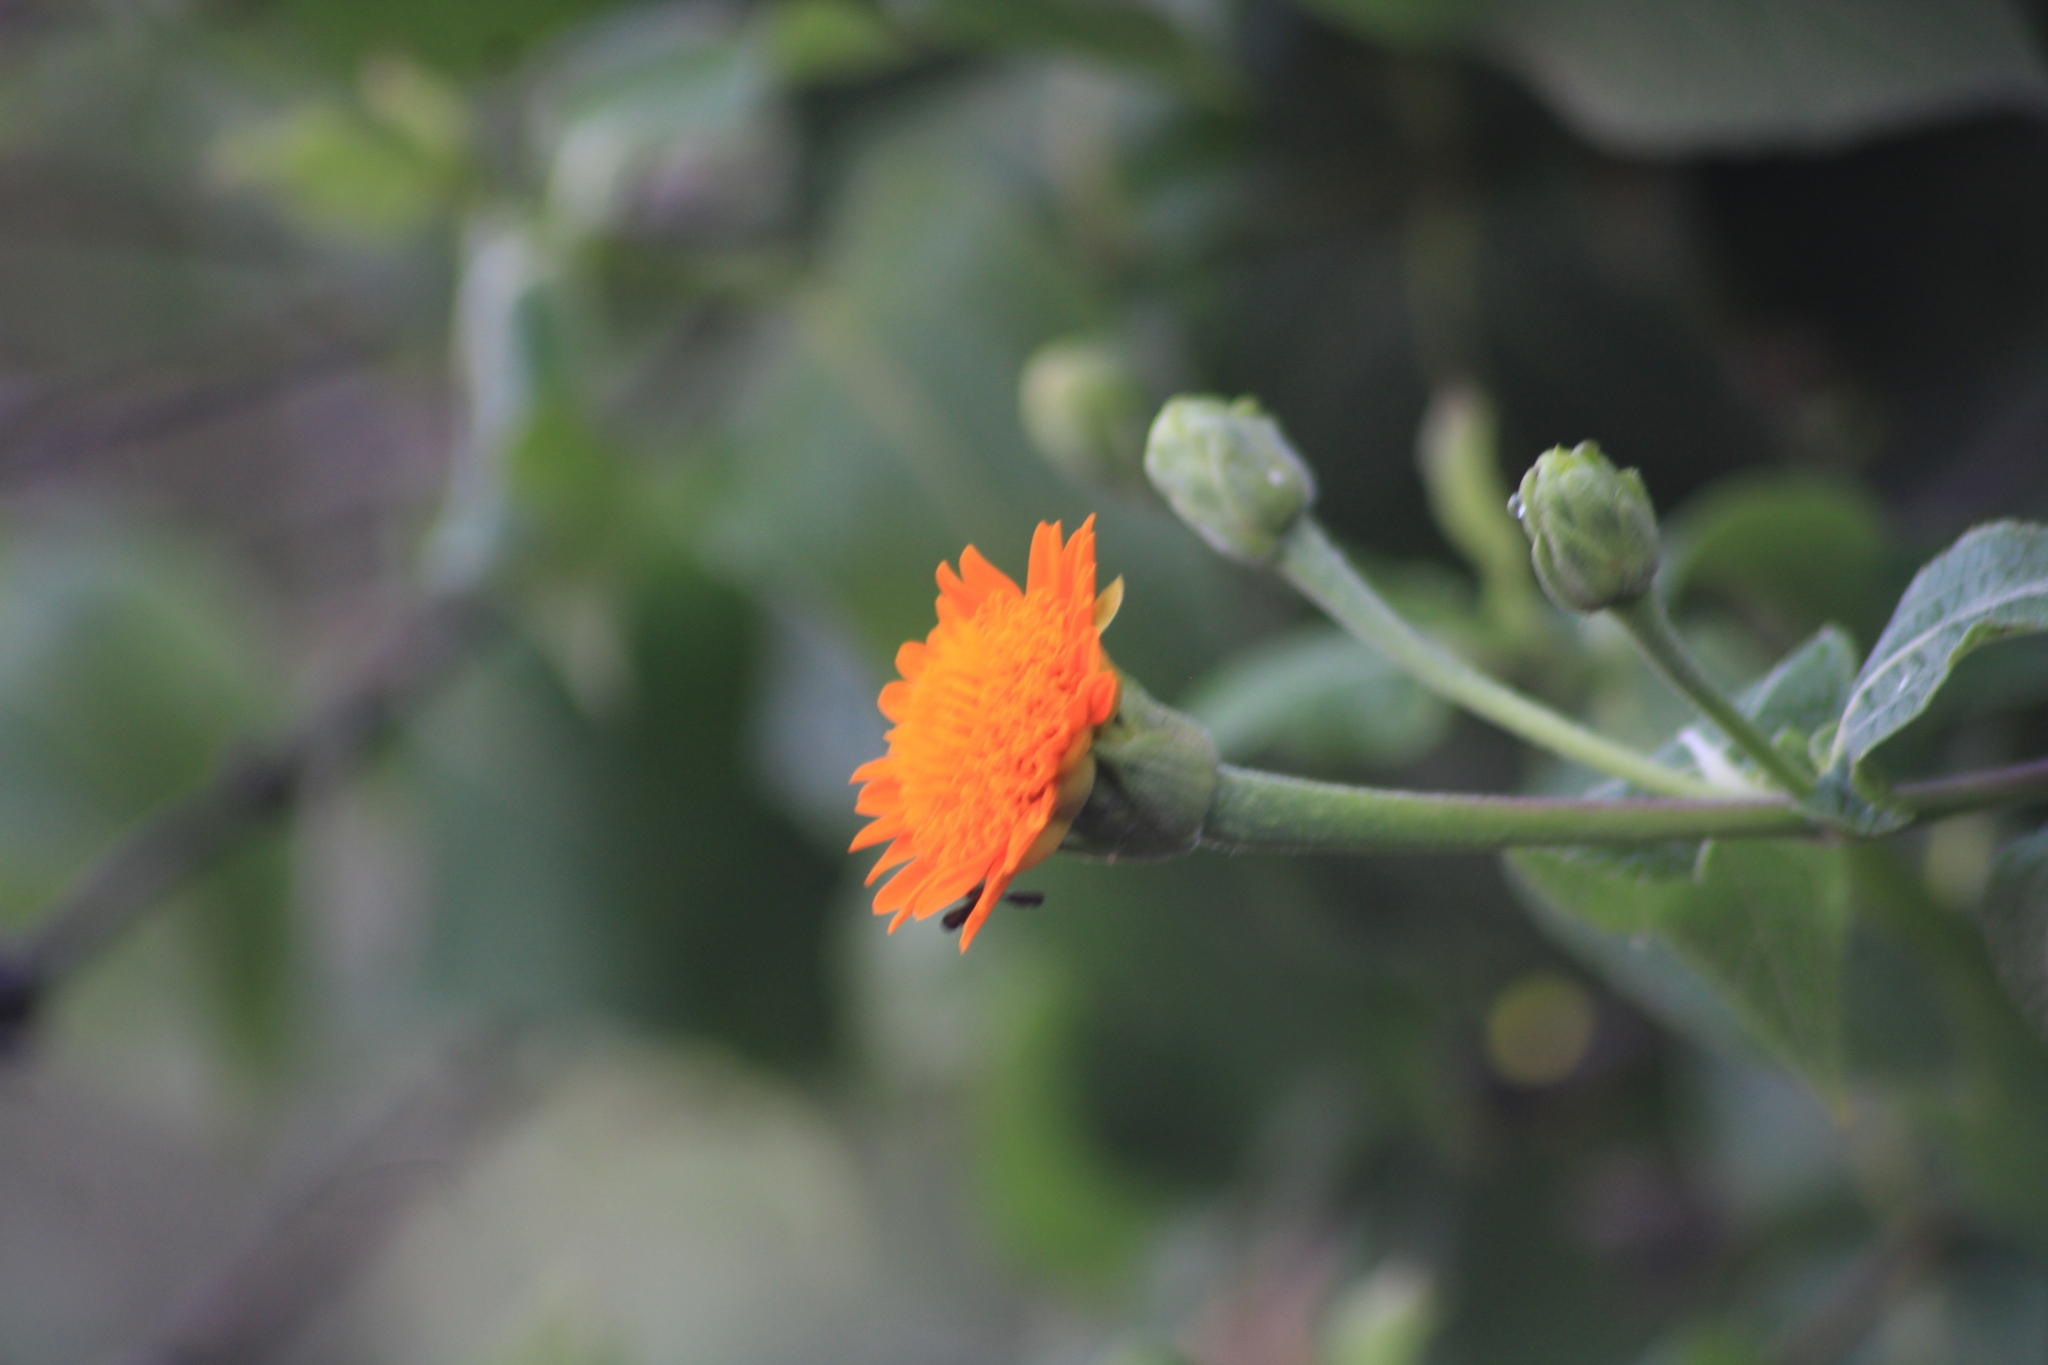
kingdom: Plantae
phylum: Tracheophyta
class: Magnoliopsida
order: Asterales
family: Asteraceae
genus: Lasianthaea
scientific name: Lasianthaea macrocephala
